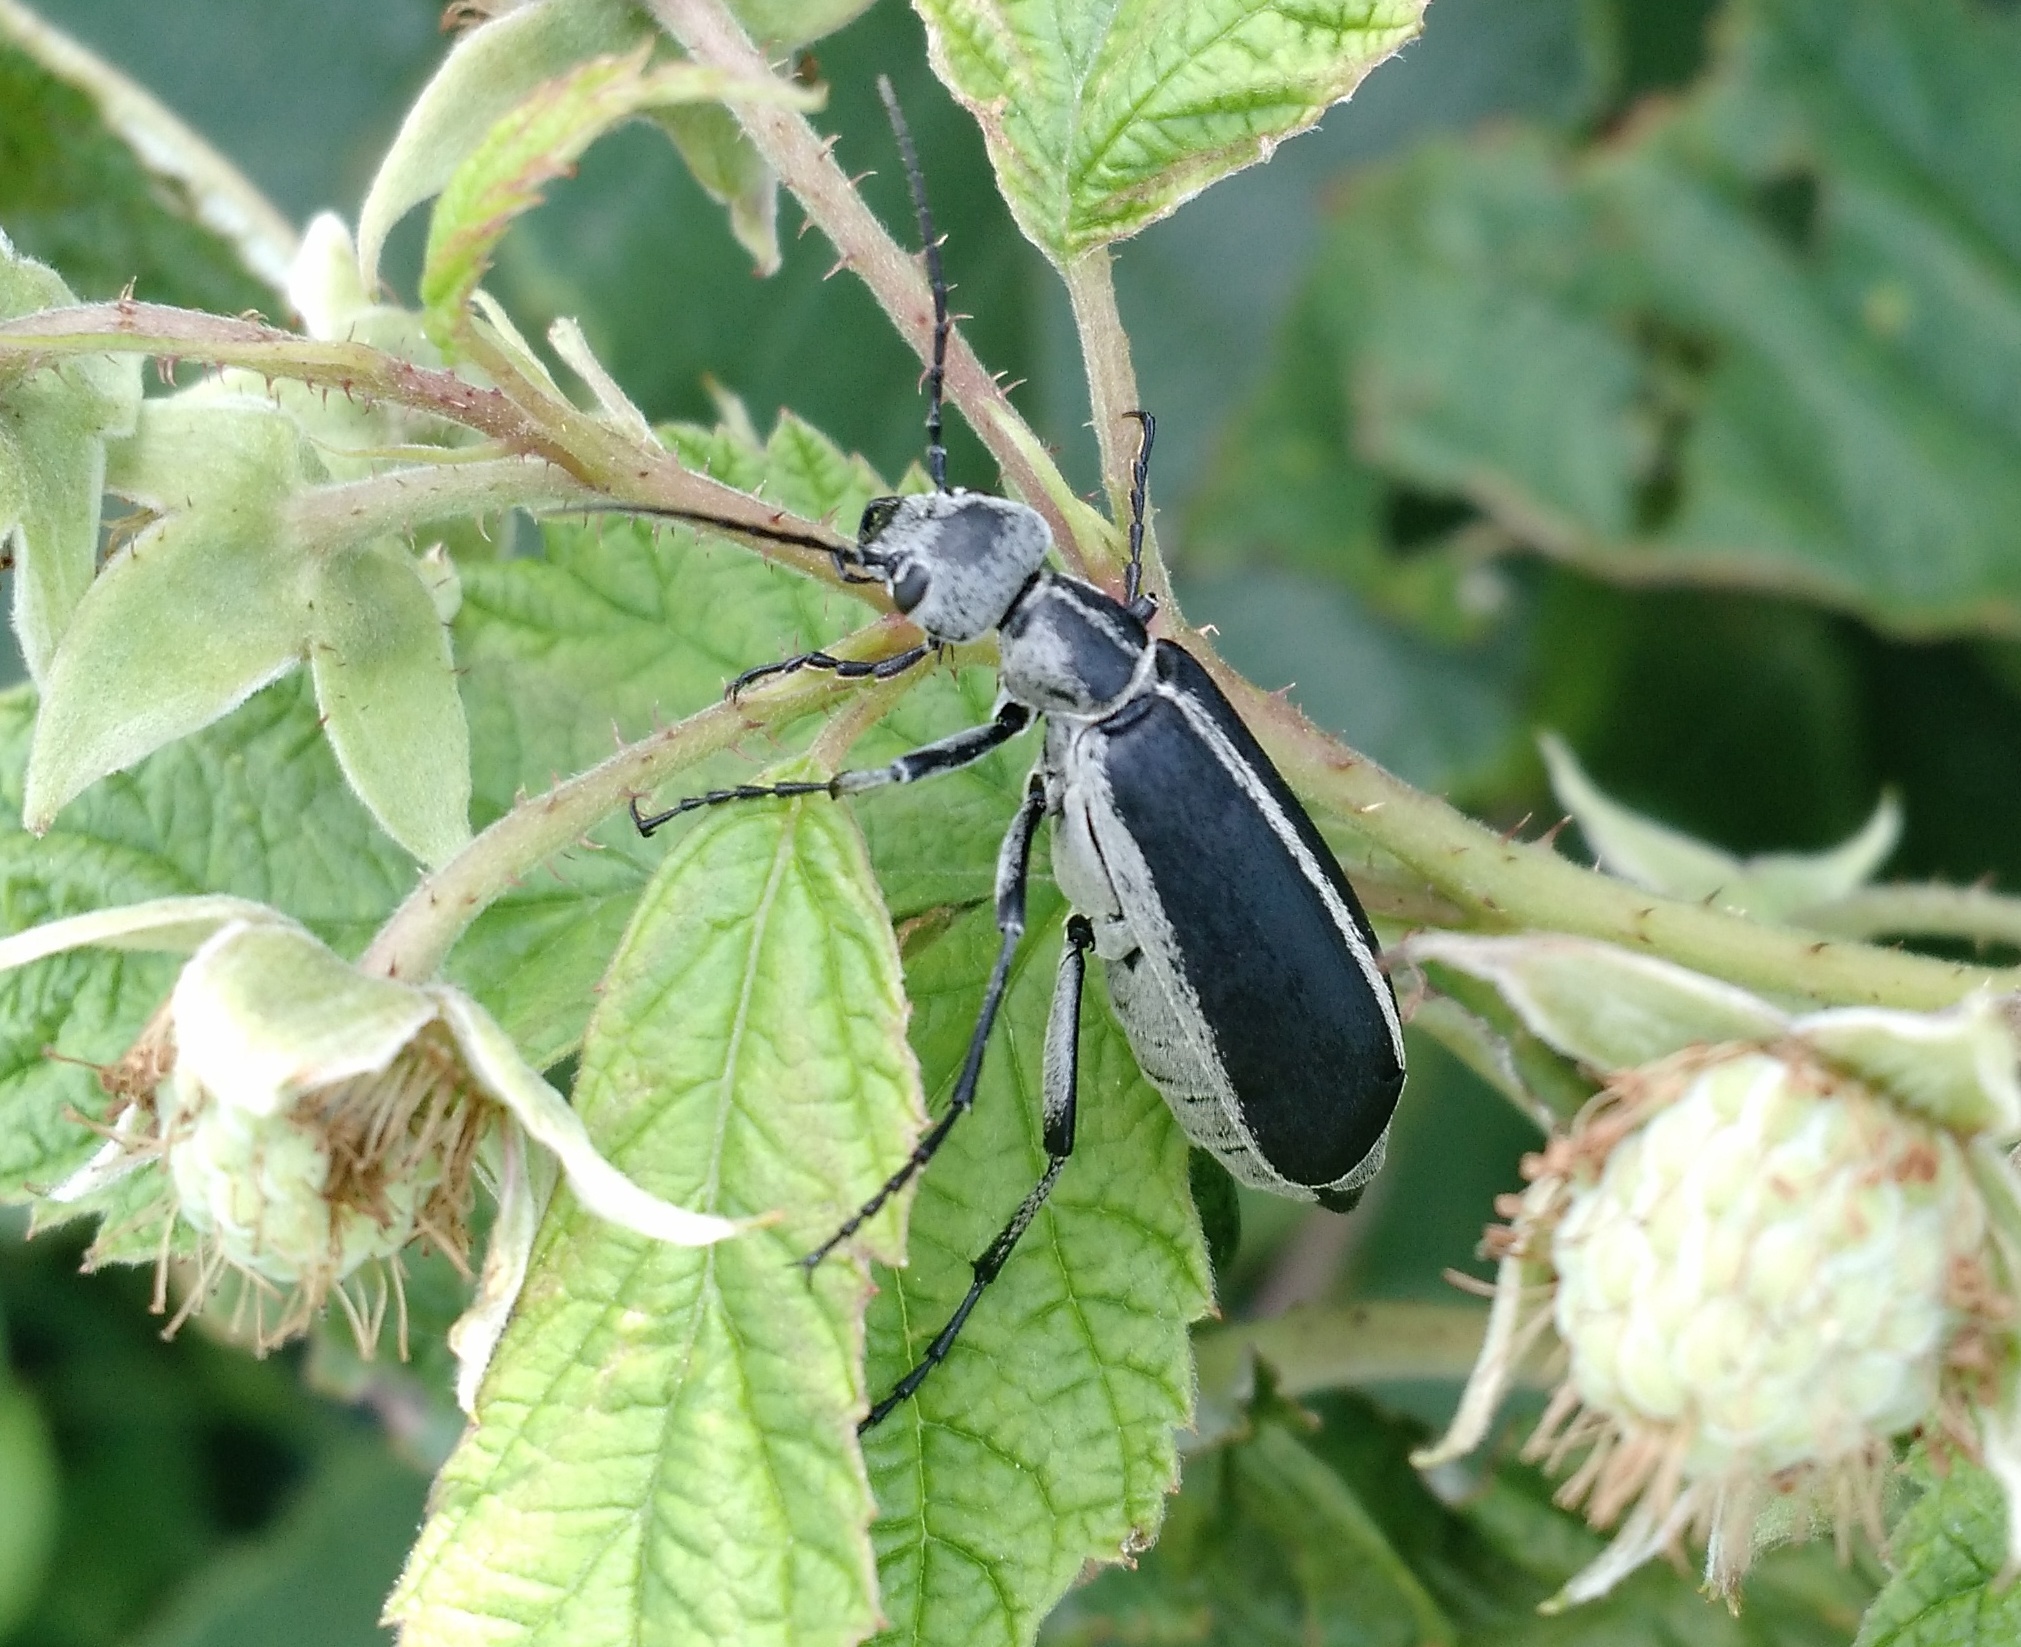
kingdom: Animalia
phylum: Arthropoda
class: Insecta
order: Coleoptera
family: Meloidae
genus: Epicauta
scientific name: Epicauta funebris
